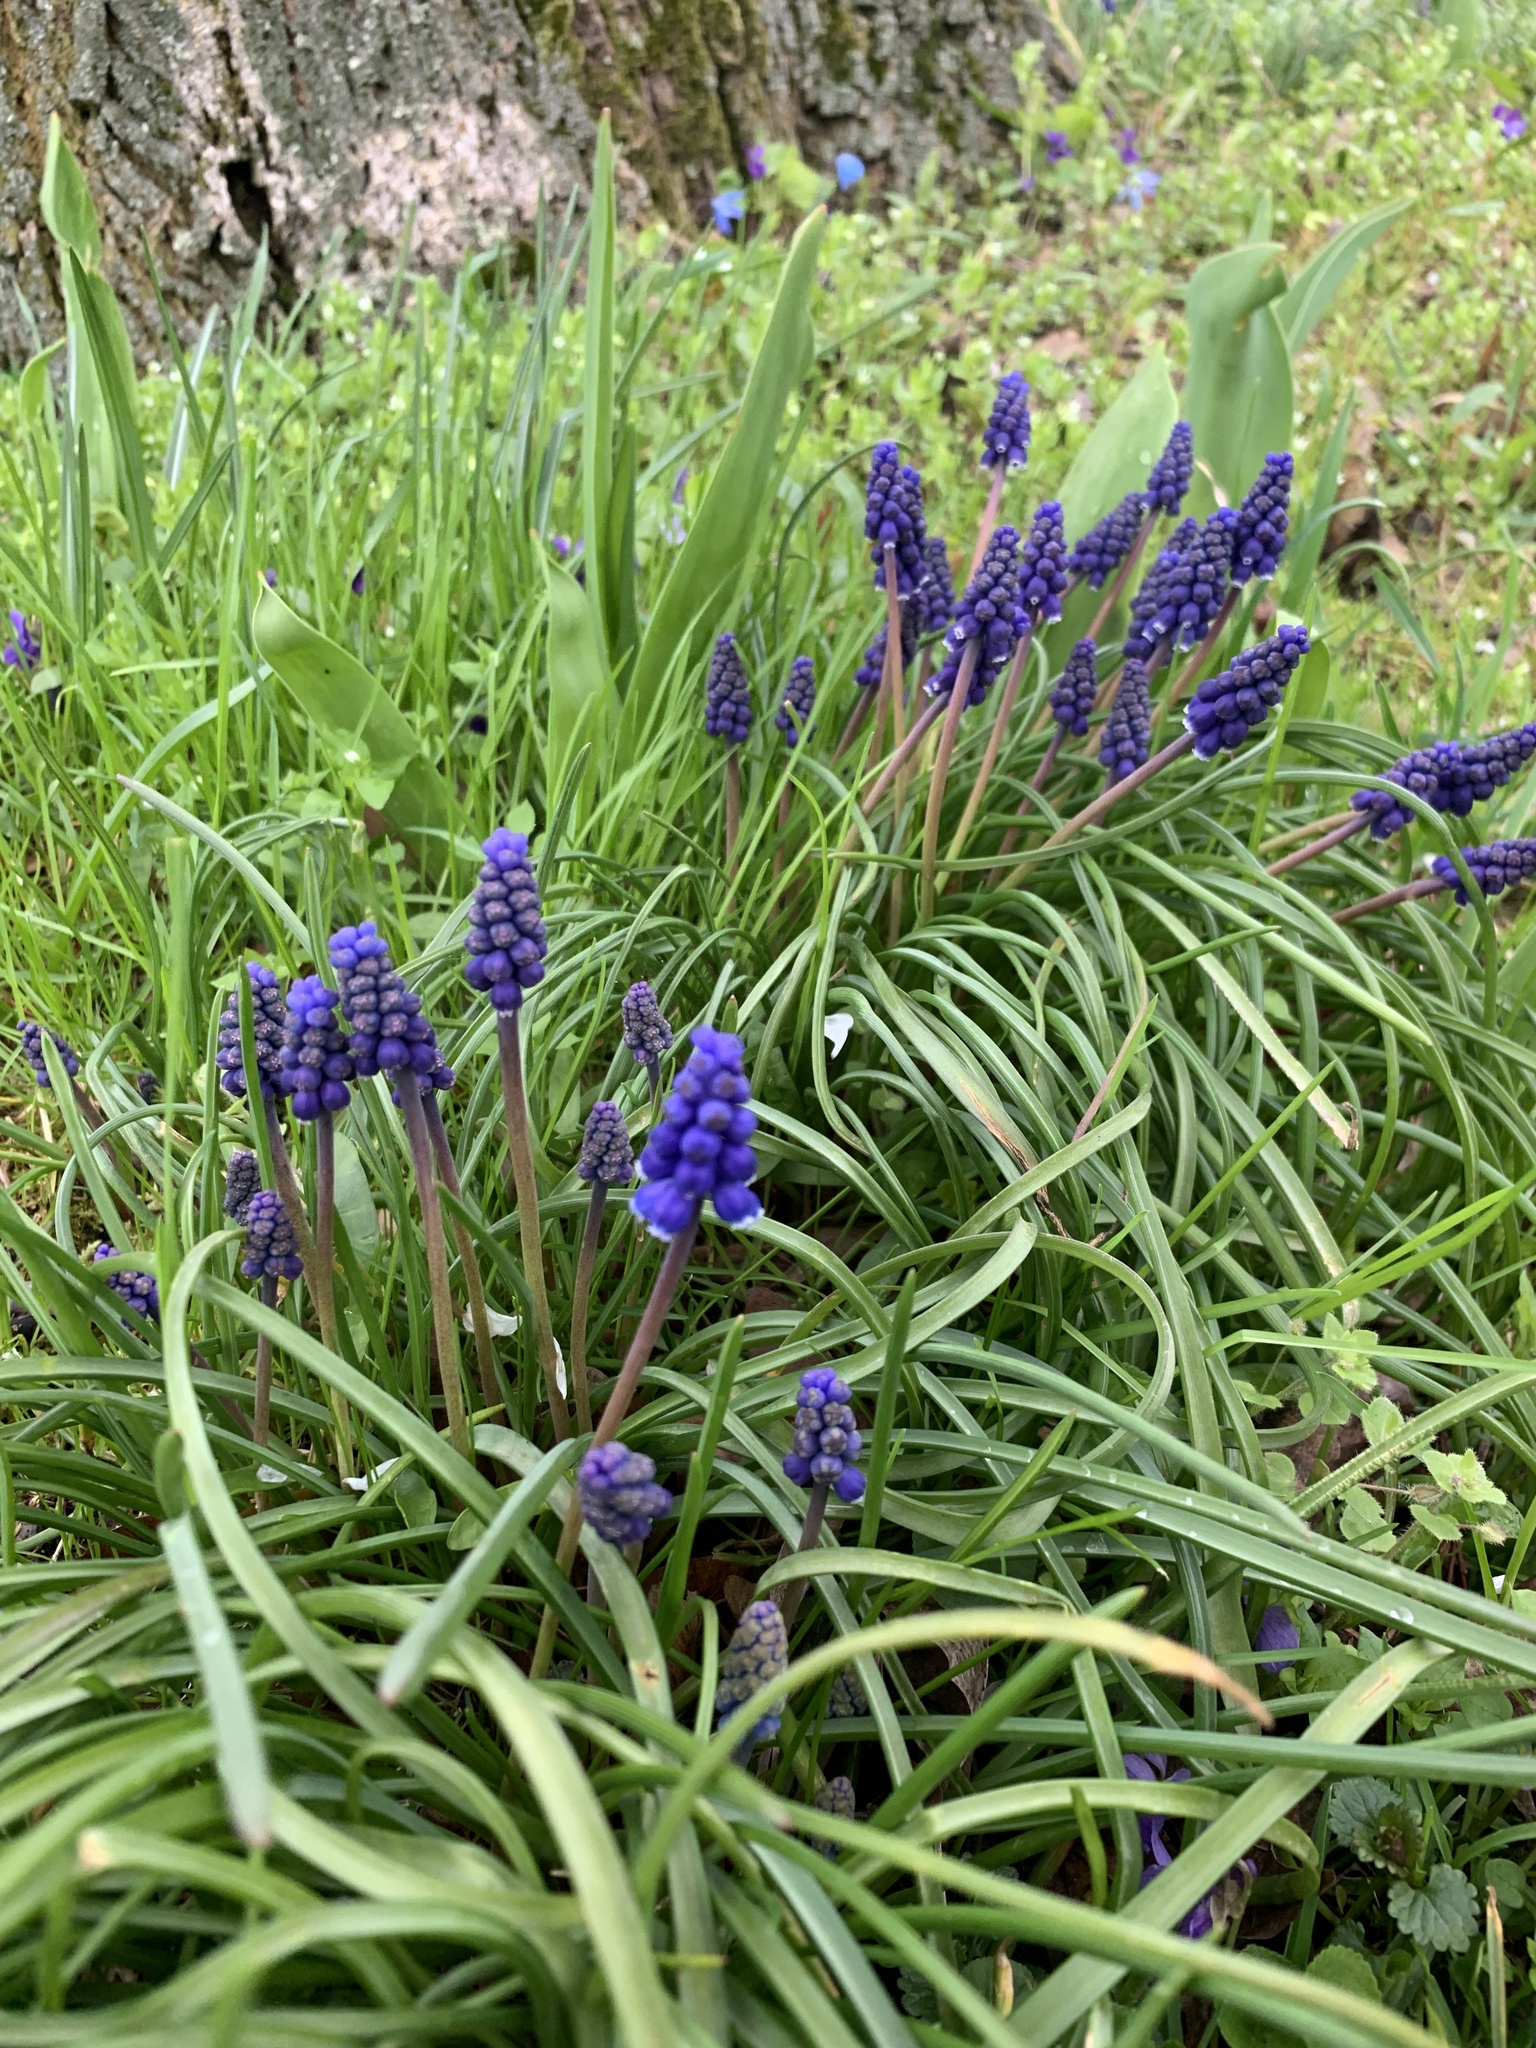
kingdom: Plantae
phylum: Tracheophyta
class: Liliopsida
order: Asparagales
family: Asparagaceae
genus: Muscari
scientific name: Muscari armeniacum
